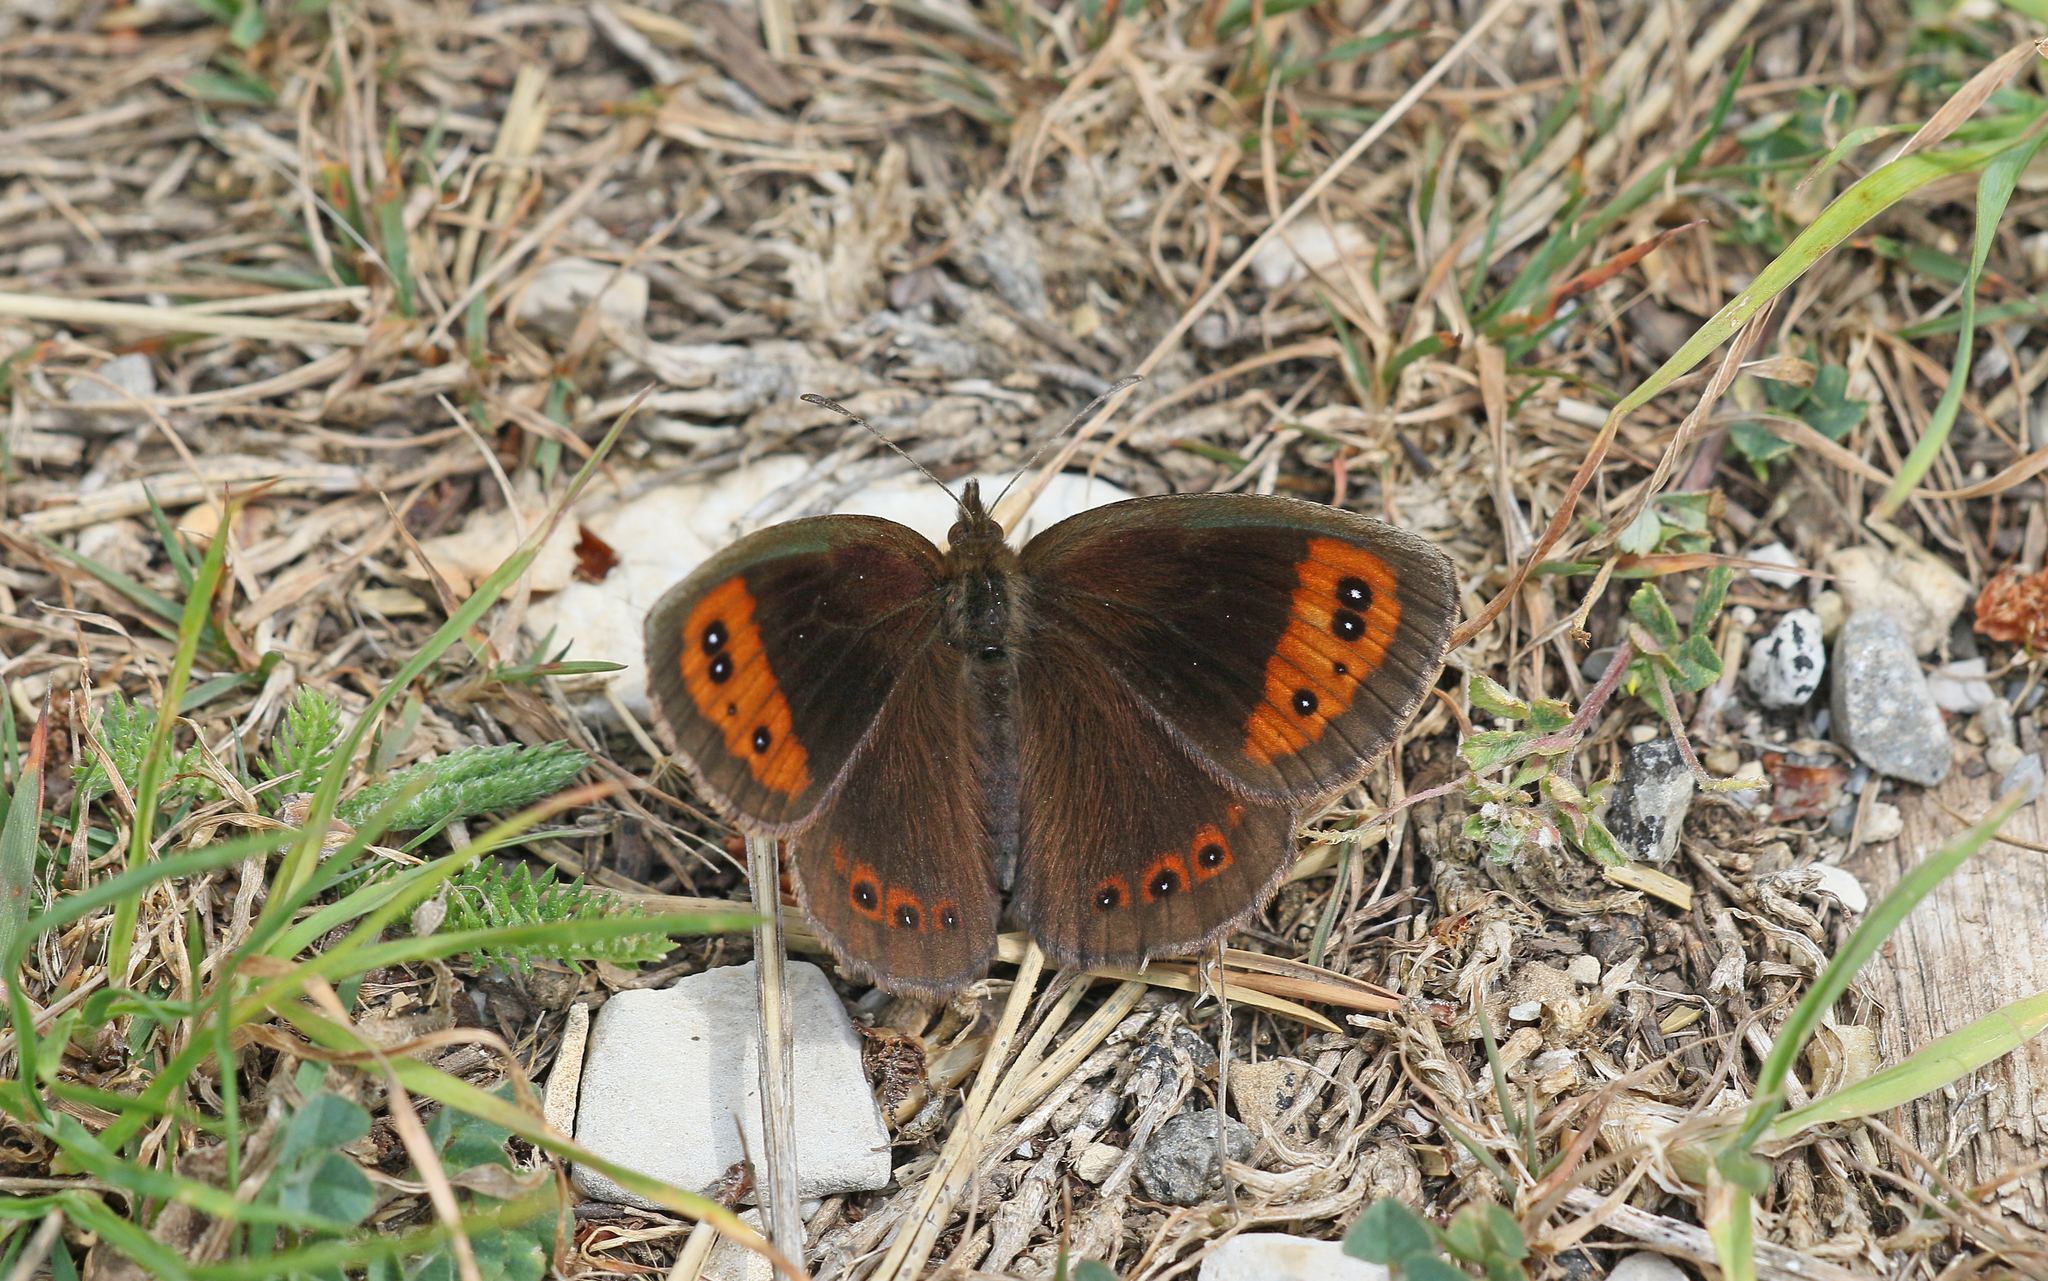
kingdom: Animalia
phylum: Arthropoda
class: Insecta
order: Lepidoptera
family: Nymphalidae
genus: Erebia
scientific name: Erebia neoridas
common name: Autumn ringlet
